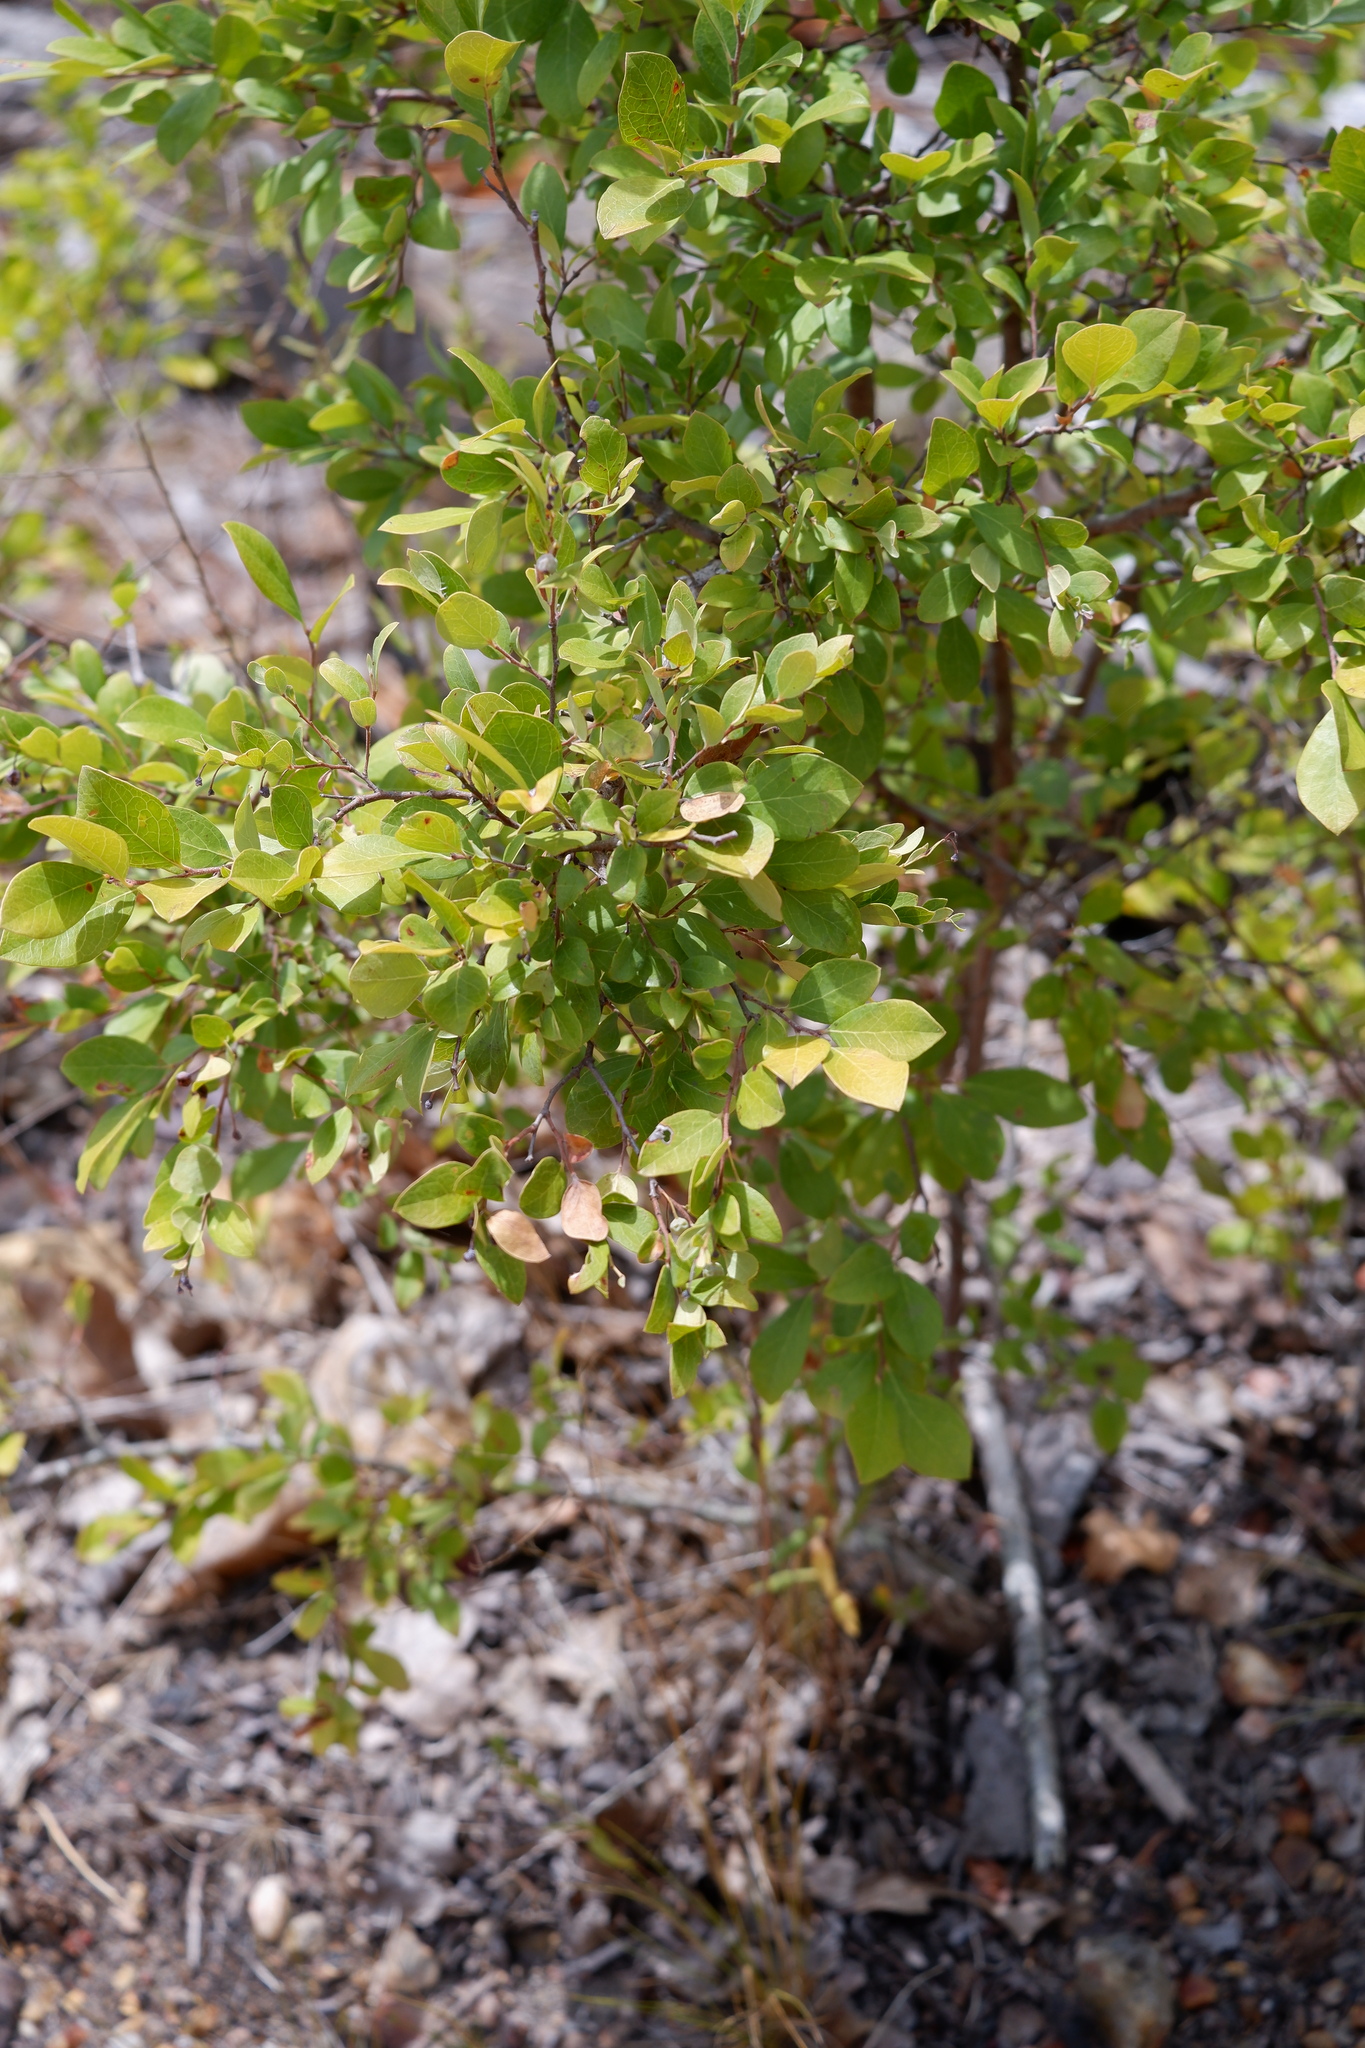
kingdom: Plantae
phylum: Tracheophyta
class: Magnoliopsida
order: Ericales
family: Ericaceae
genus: Vaccinium
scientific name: Vaccinium arboreum
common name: Farkleberry
